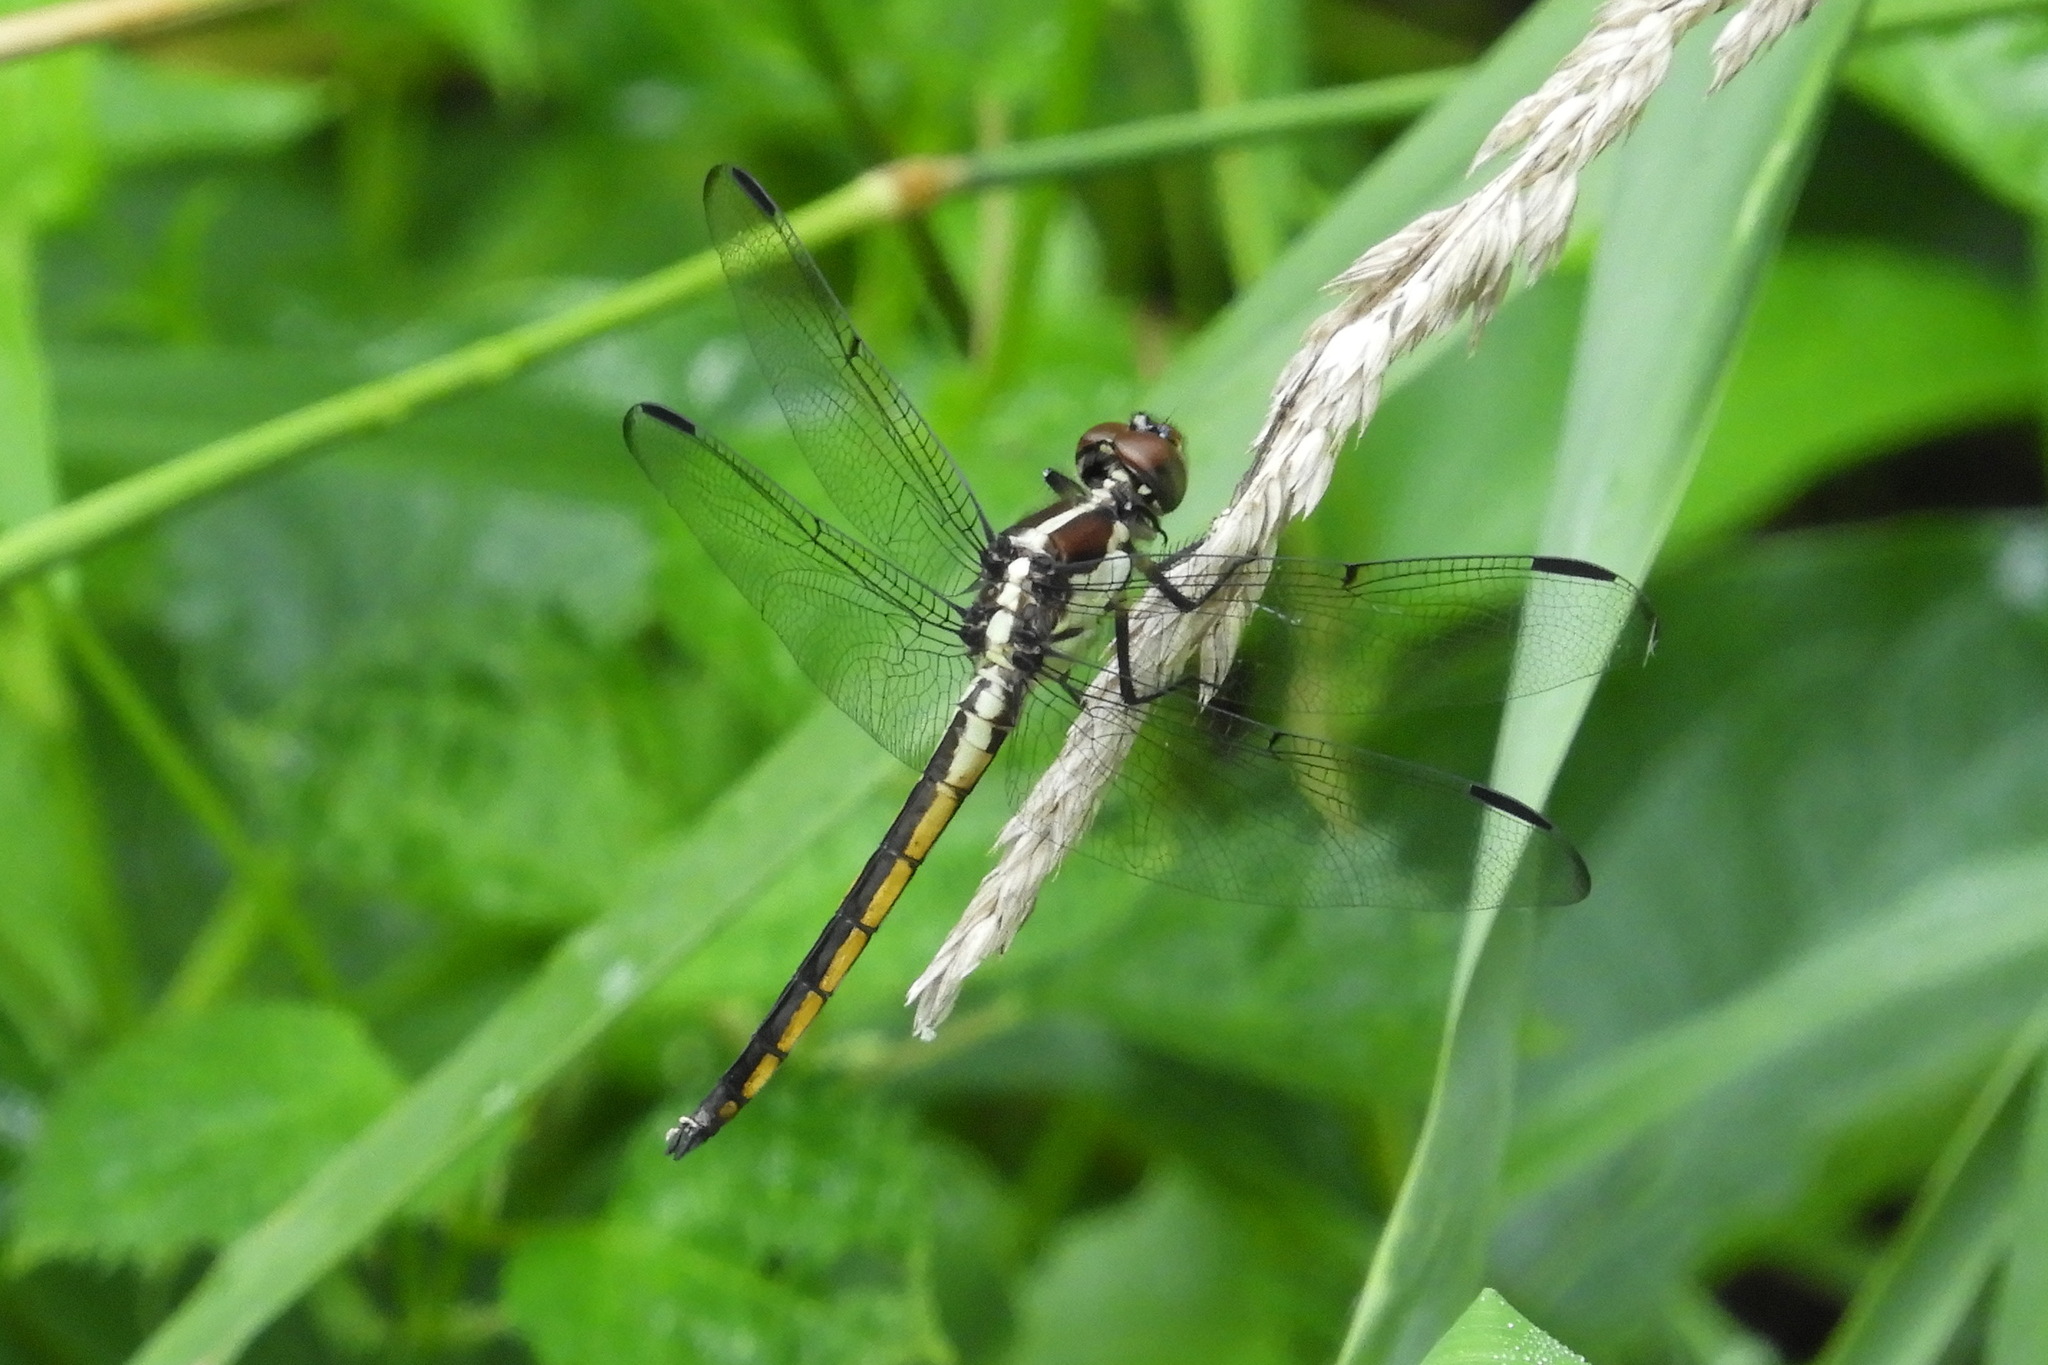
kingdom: Animalia
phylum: Arthropoda
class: Insecta
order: Odonata
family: Libellulidae
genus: Libellula
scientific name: Libellula incesta
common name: Slaty skimmer
